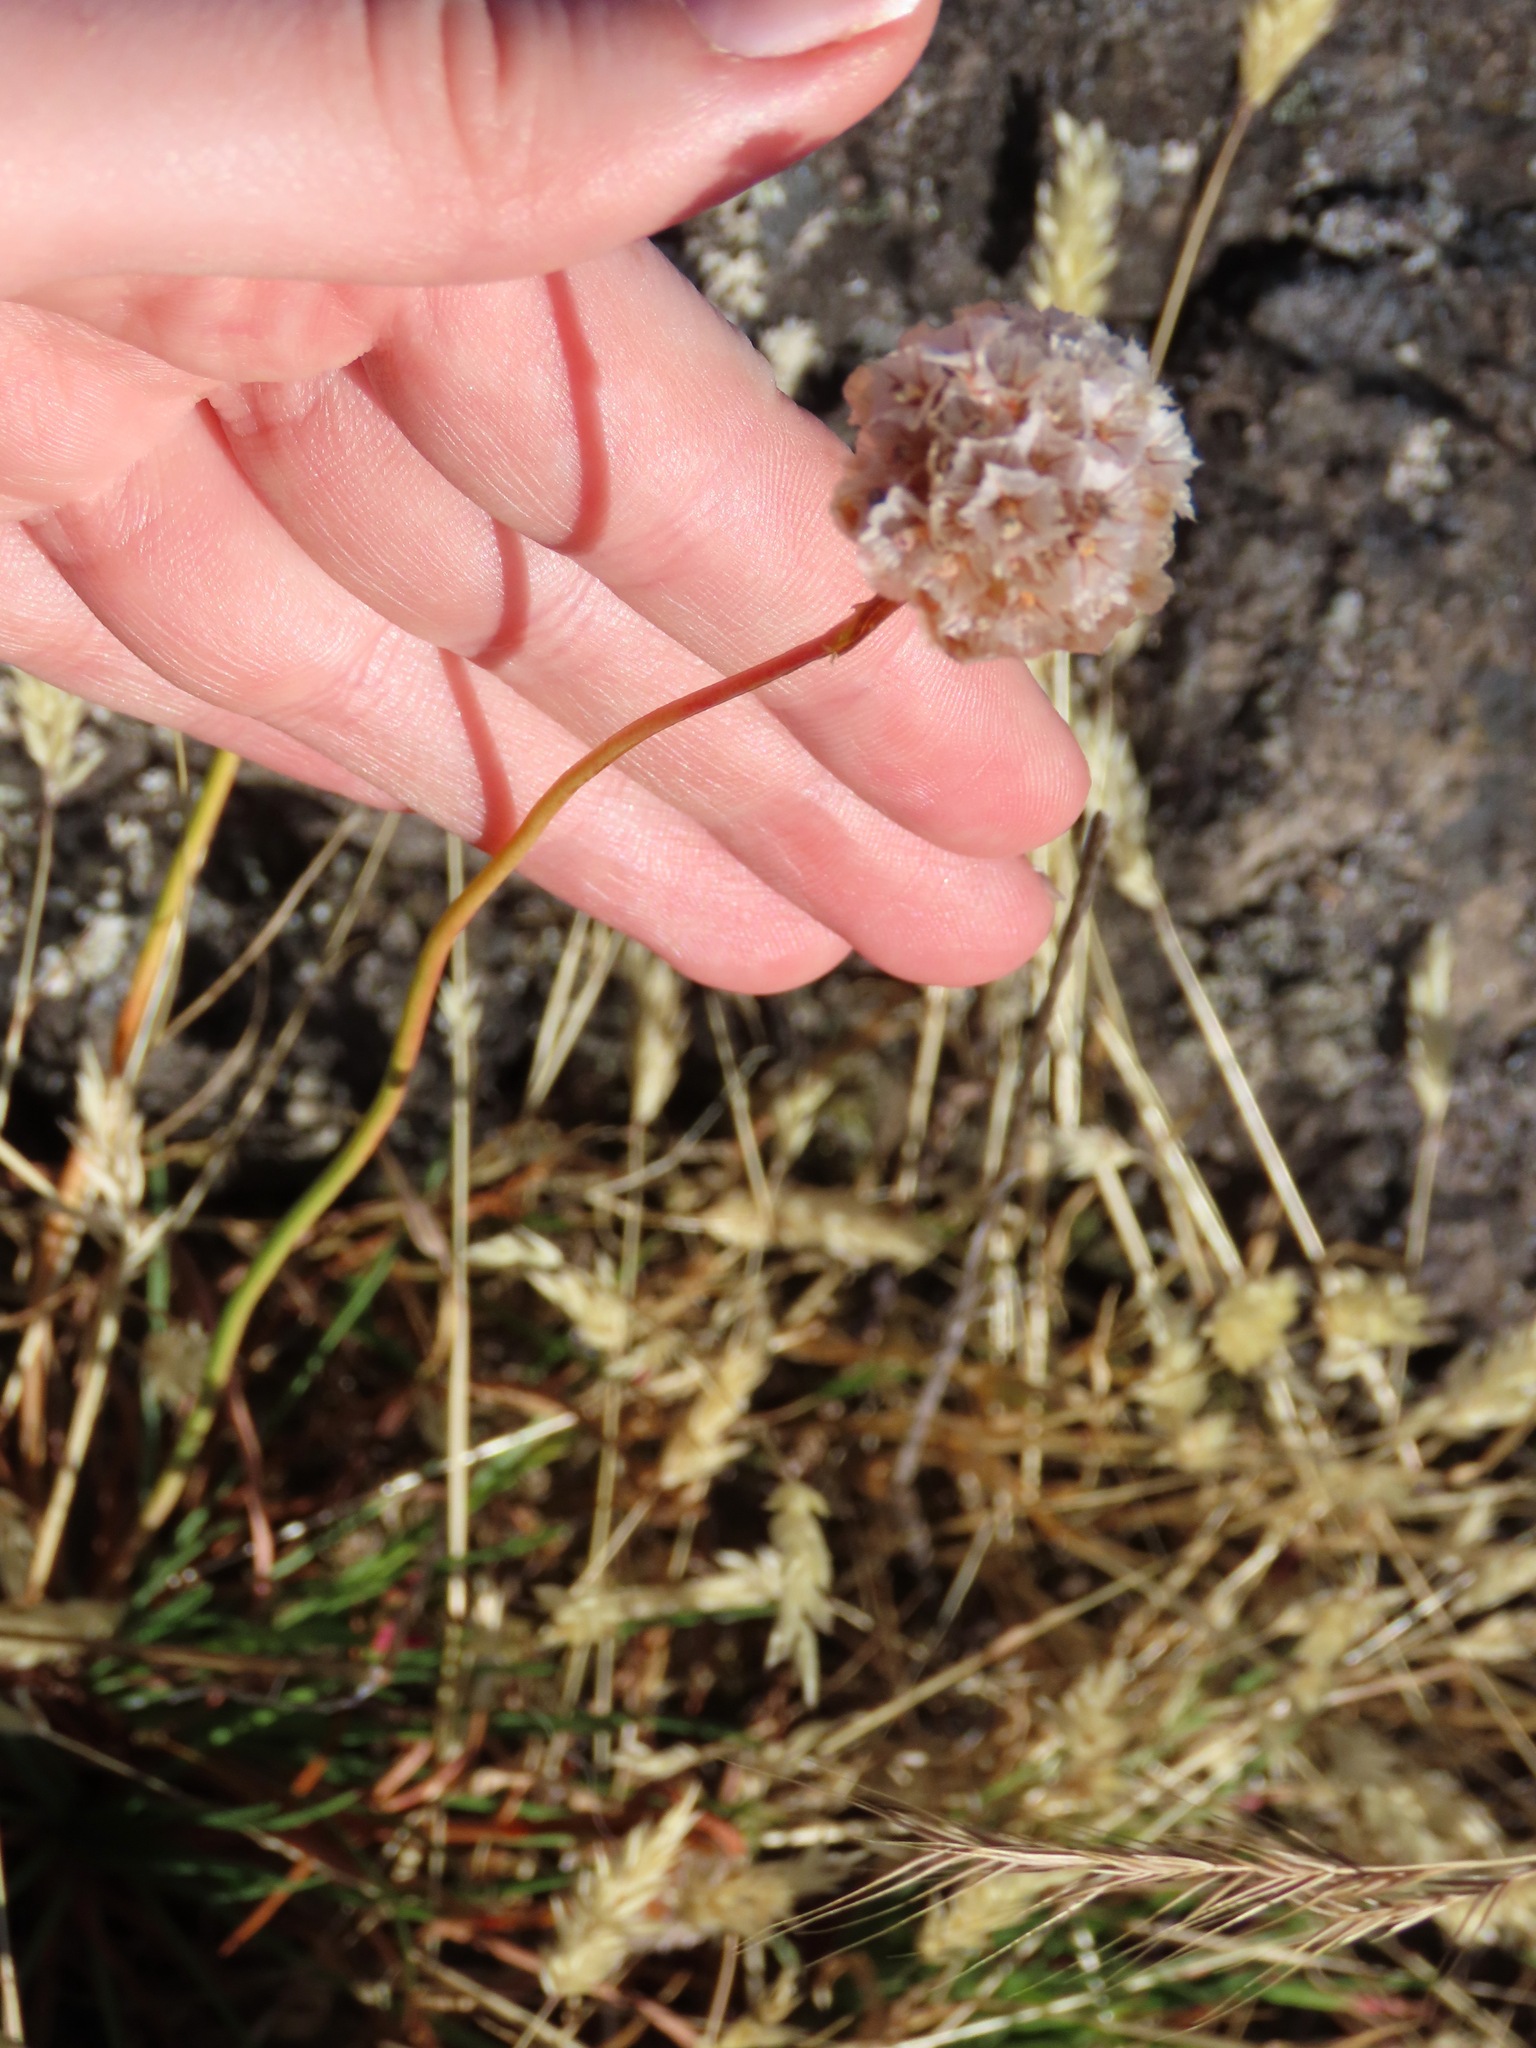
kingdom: Plantae
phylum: Tracheophyta
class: Magnoliopsida
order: Caryophyllales
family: Plumbaginaceae
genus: Armeria
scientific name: Armeria maritima
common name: Thrift
